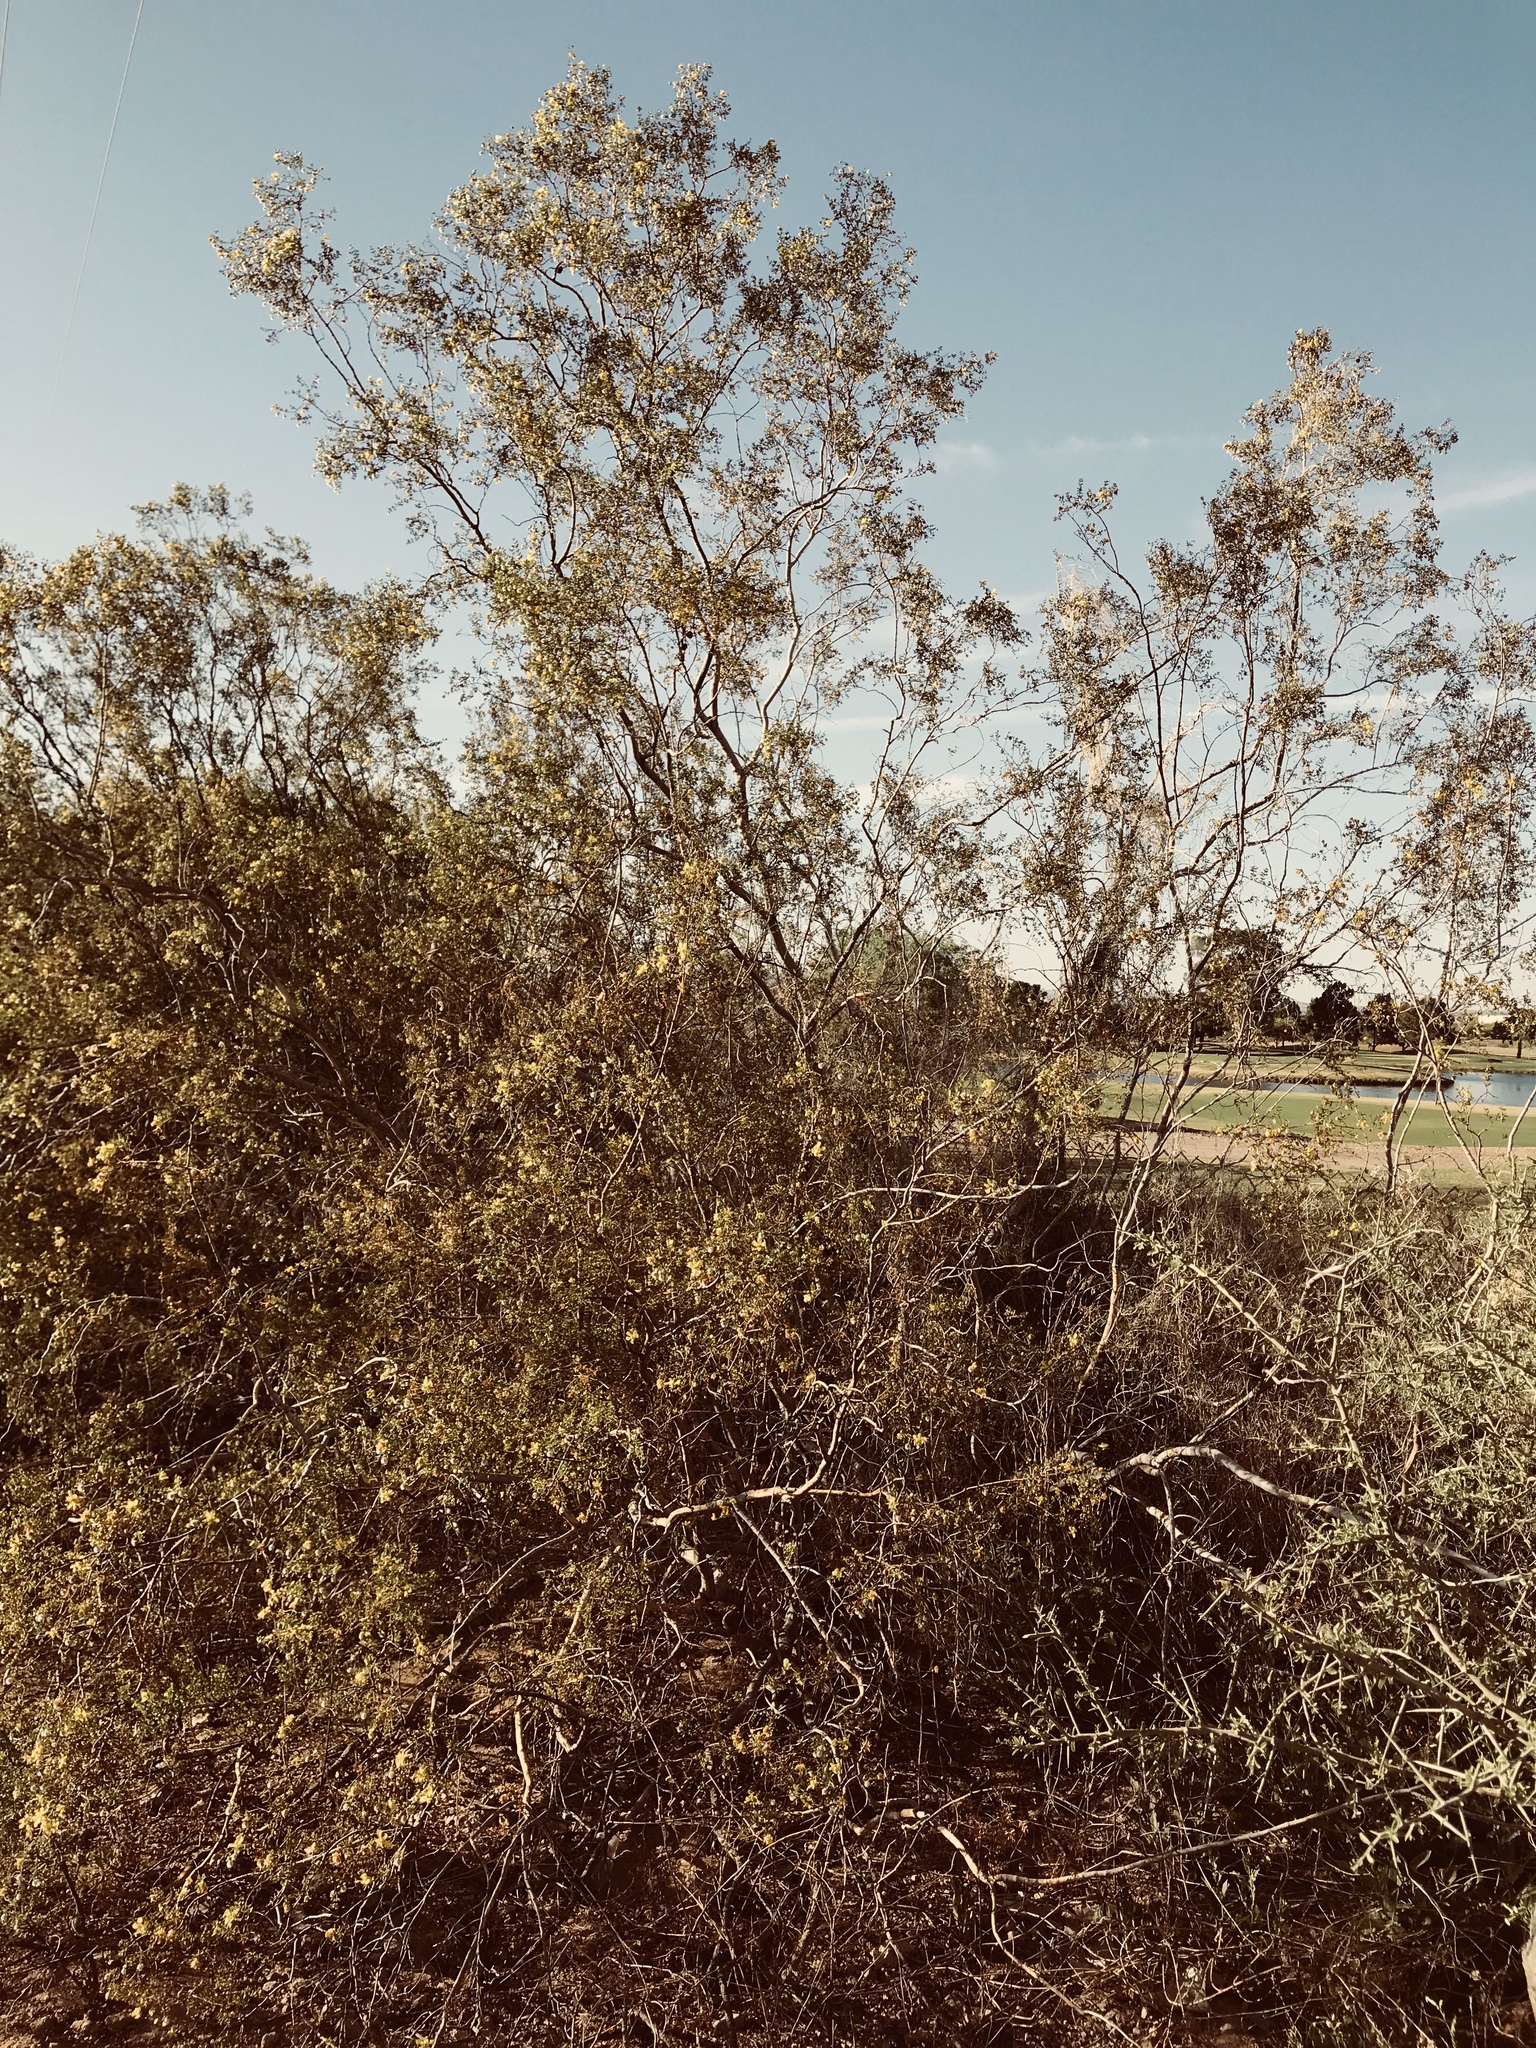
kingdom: Plantae
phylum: Tracheophyta
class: Magnoliopsida
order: Zygophyllales
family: Zygophyllaceae
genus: Larrea
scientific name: Larrea tridentata
